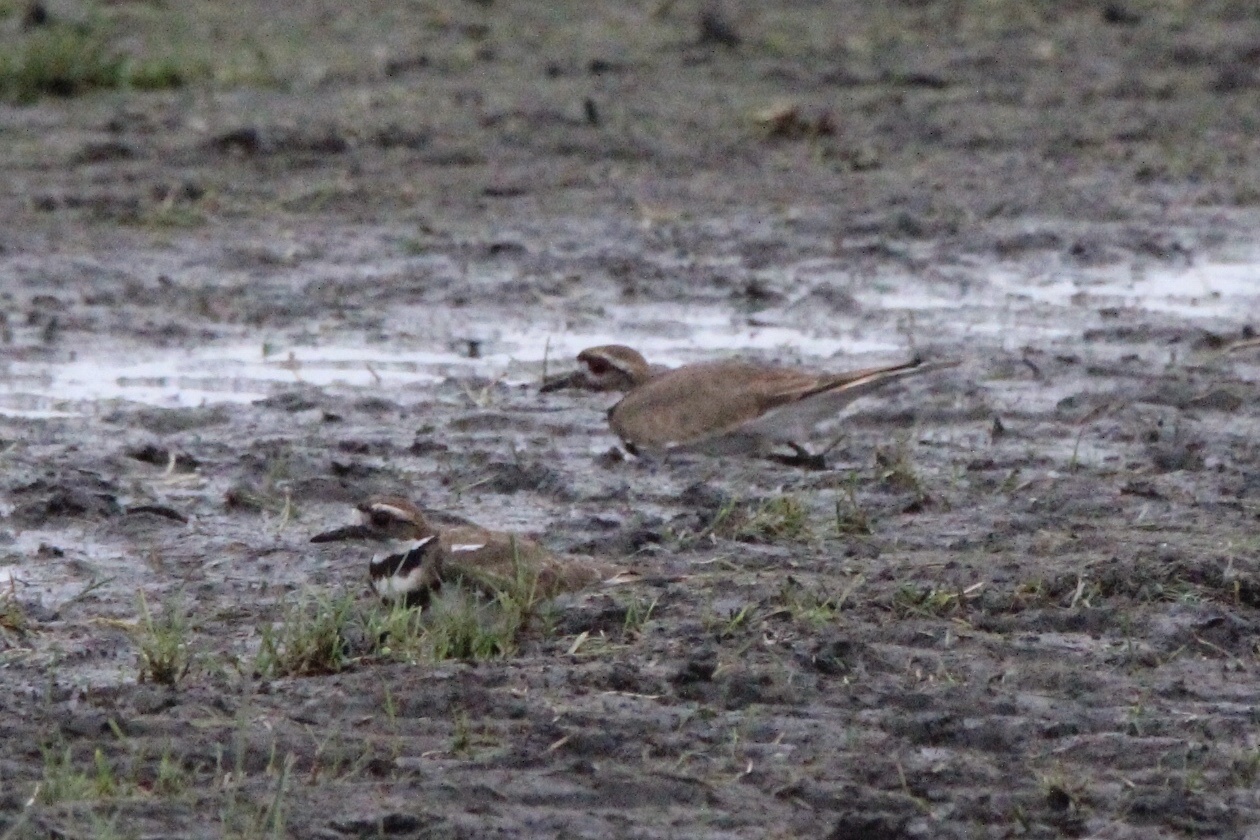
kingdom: Animalia
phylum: Chordata
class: Aves
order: Charadriiformes
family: Charadriidae
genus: Charadrius
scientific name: Charadrius vociferus
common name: Killdeer
